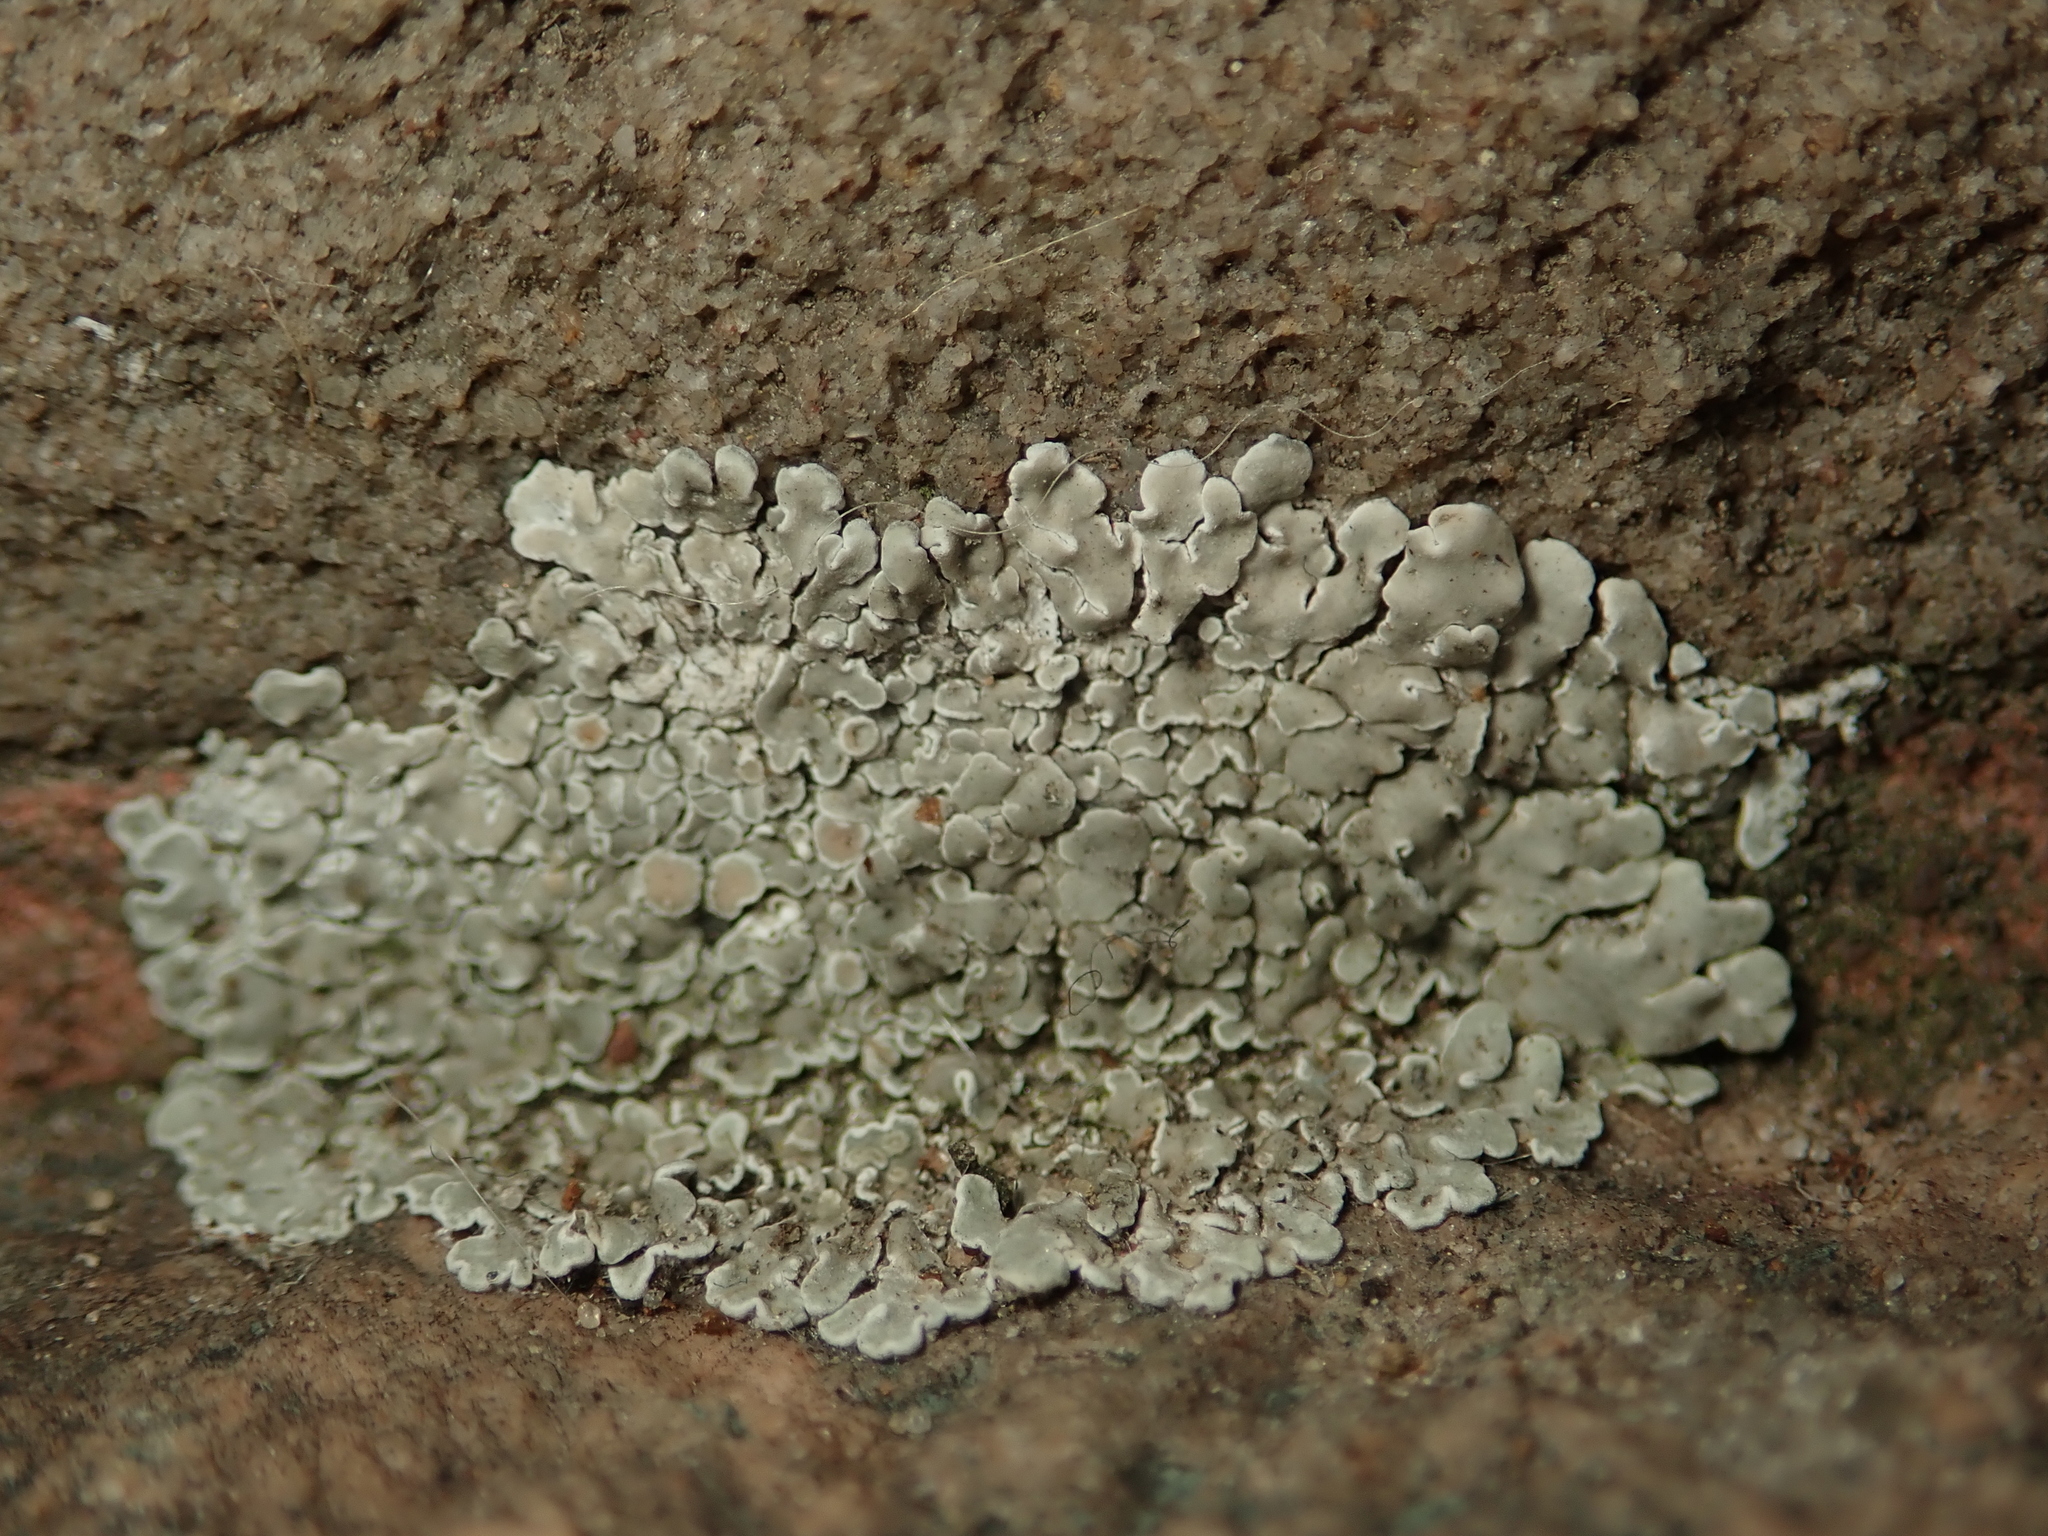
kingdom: Fungi
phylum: Ascomycota
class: Lecanoromycetes
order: Lecanorales
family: Lecanoraceae
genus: Protoparmeliopsis
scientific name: Protoparmeliopsis muralis
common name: Stonewall rim lichen
